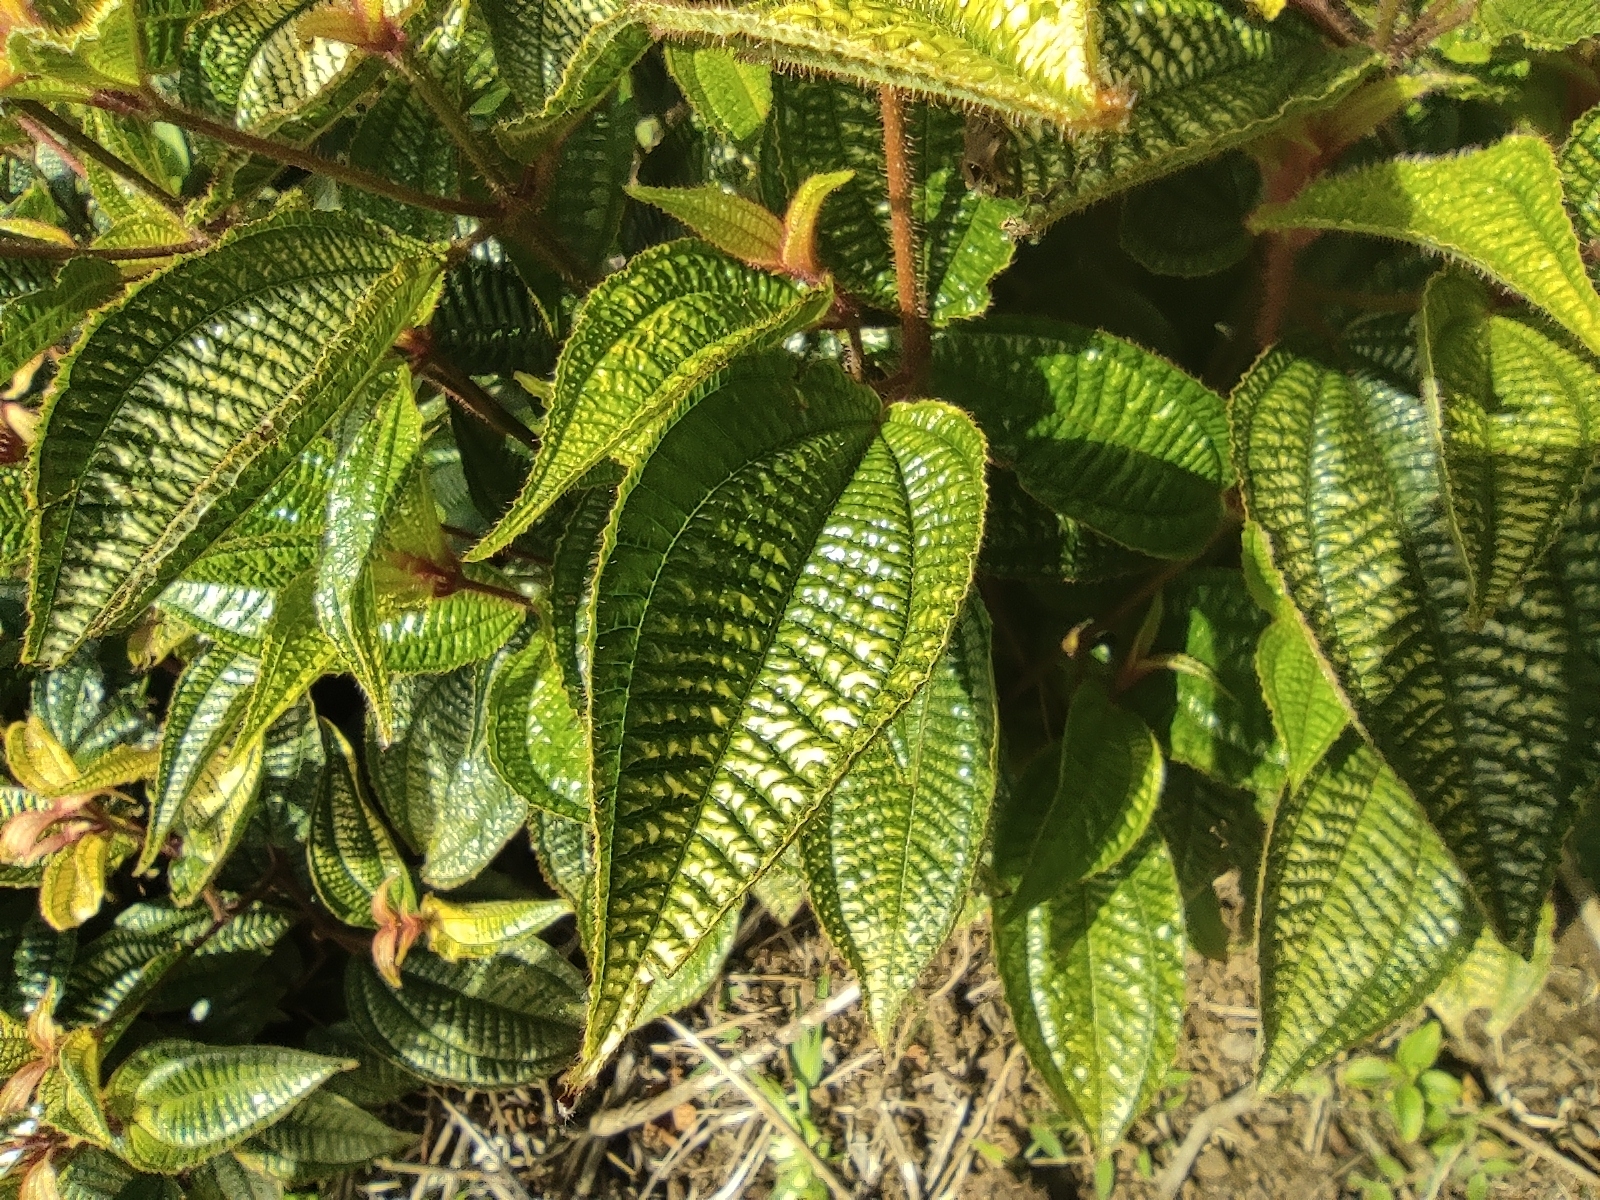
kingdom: Plantae
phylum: Tracheophyta
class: Magnoliopsida
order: Myrtales
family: Melastomataceae
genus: Miconia
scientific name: Miconia crenata
